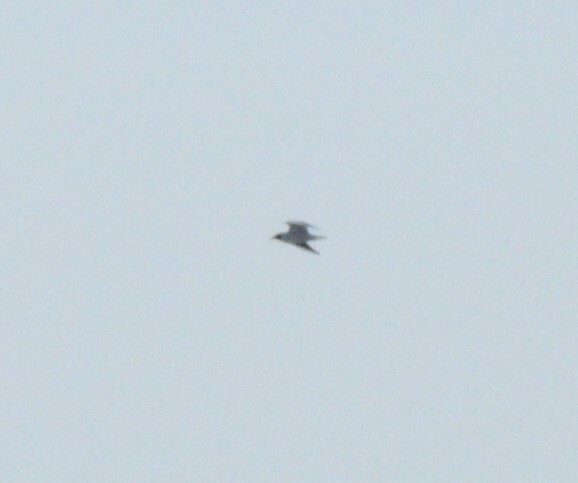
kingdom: Animalia
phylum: Chordata
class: Aves
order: Charadriiformes
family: Laridae
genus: Chroicocephalus
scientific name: Chroicocephalus ridibundus
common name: Black-headed gull
